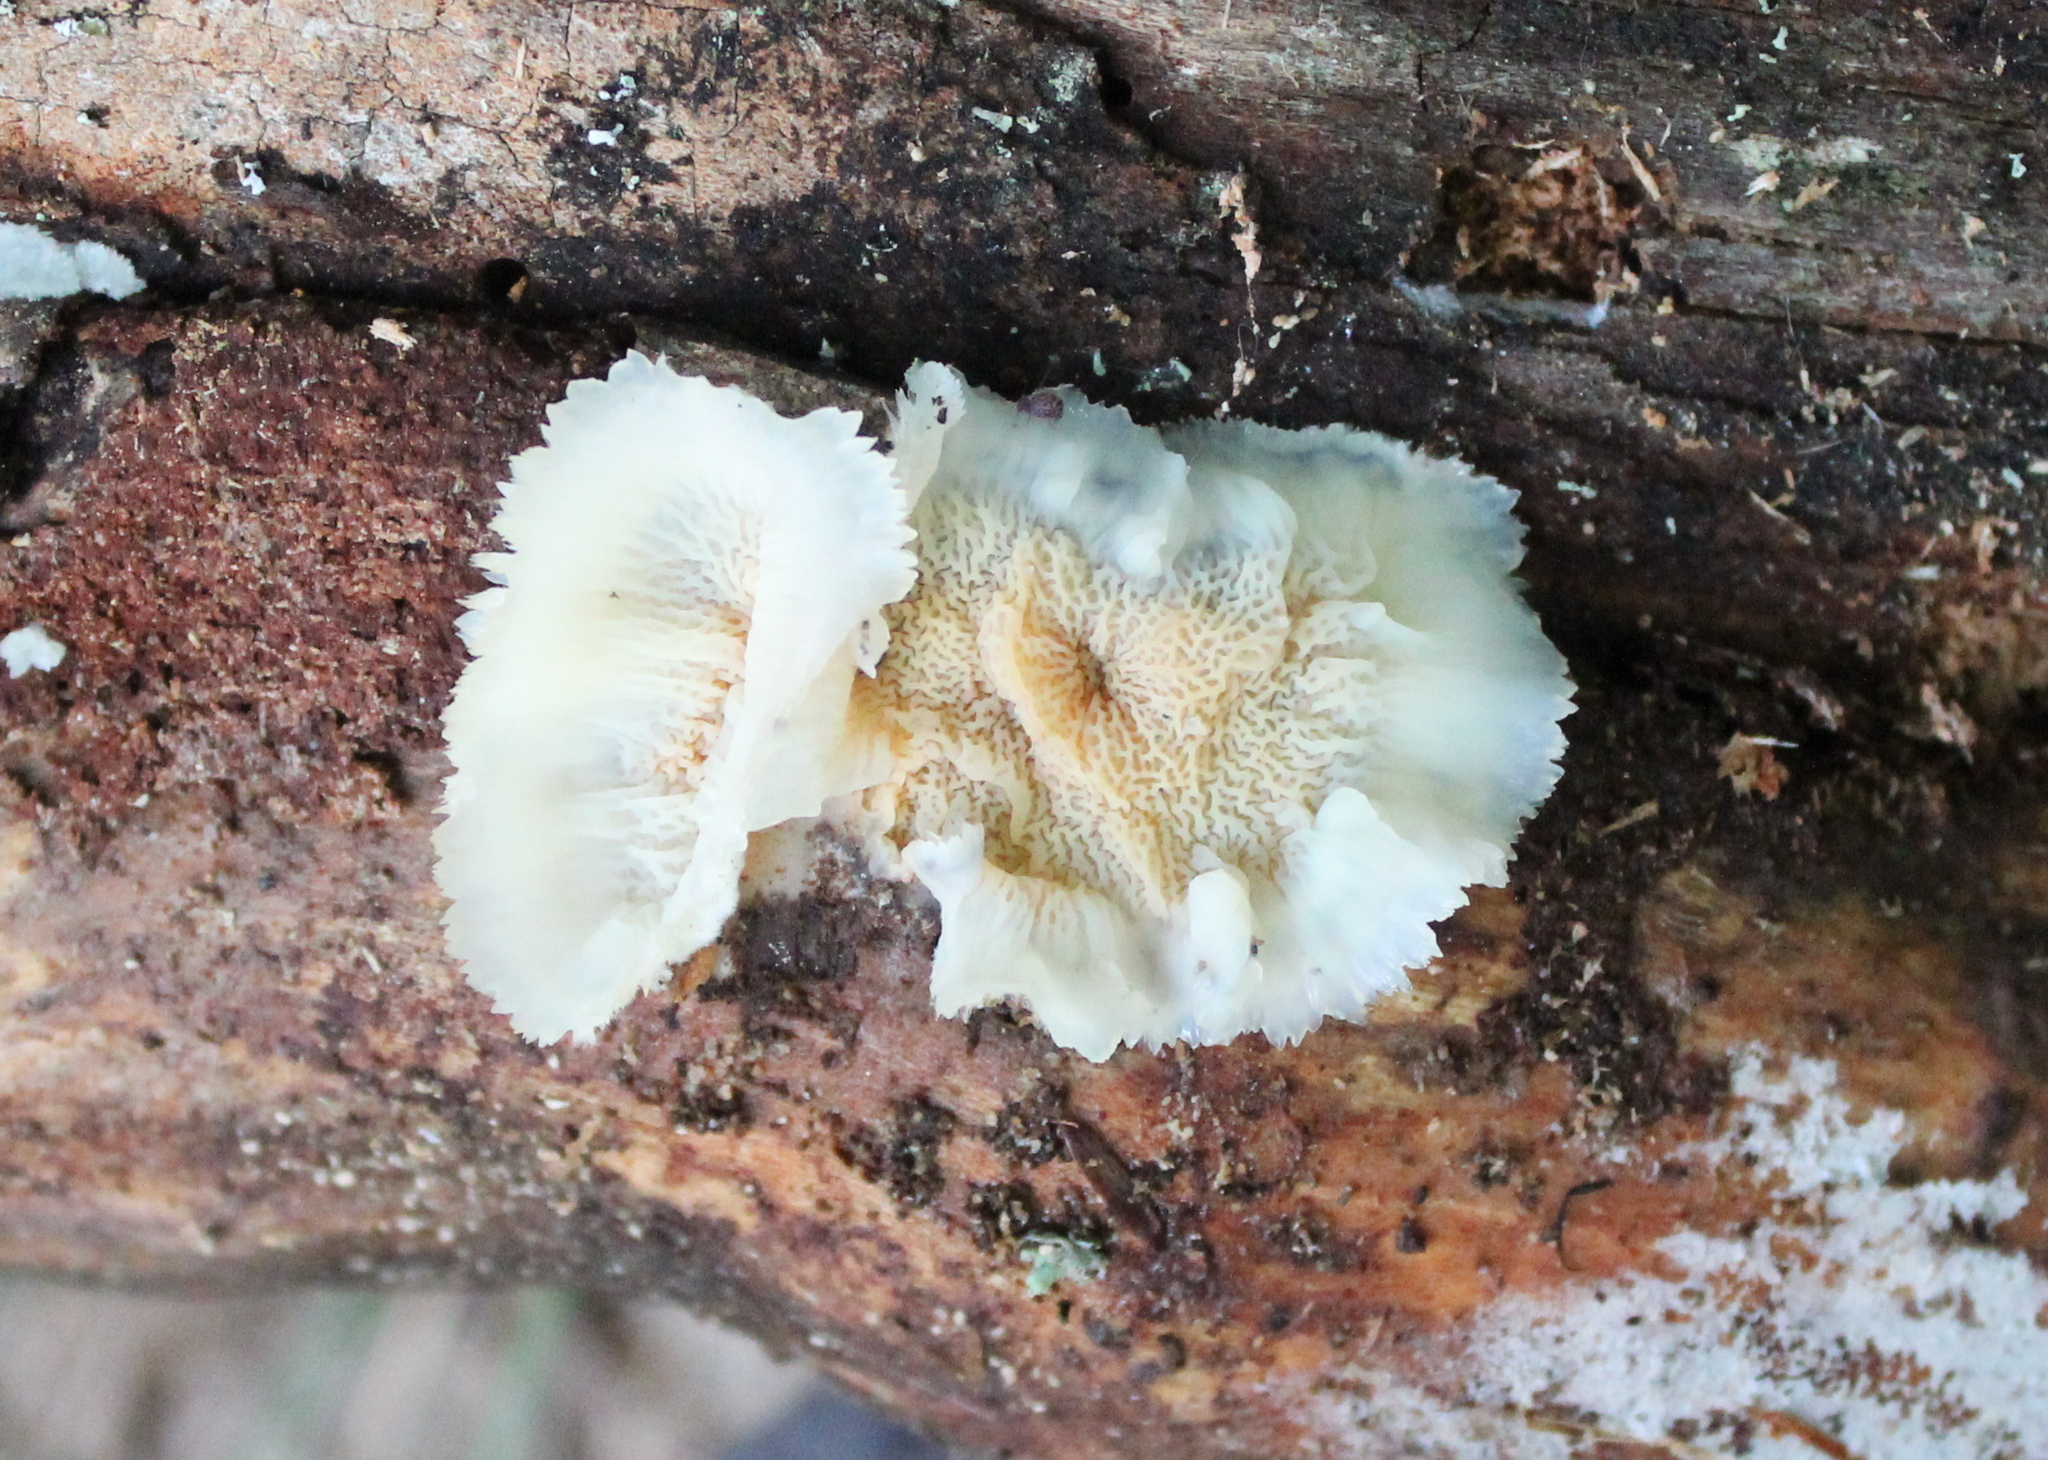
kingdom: Fungi
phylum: Basidiomycota
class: Agaricomycetes
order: Polyporales
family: Meruliaceae
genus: Phlebia
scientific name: Phlebia tremellosa
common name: Jelly rot
